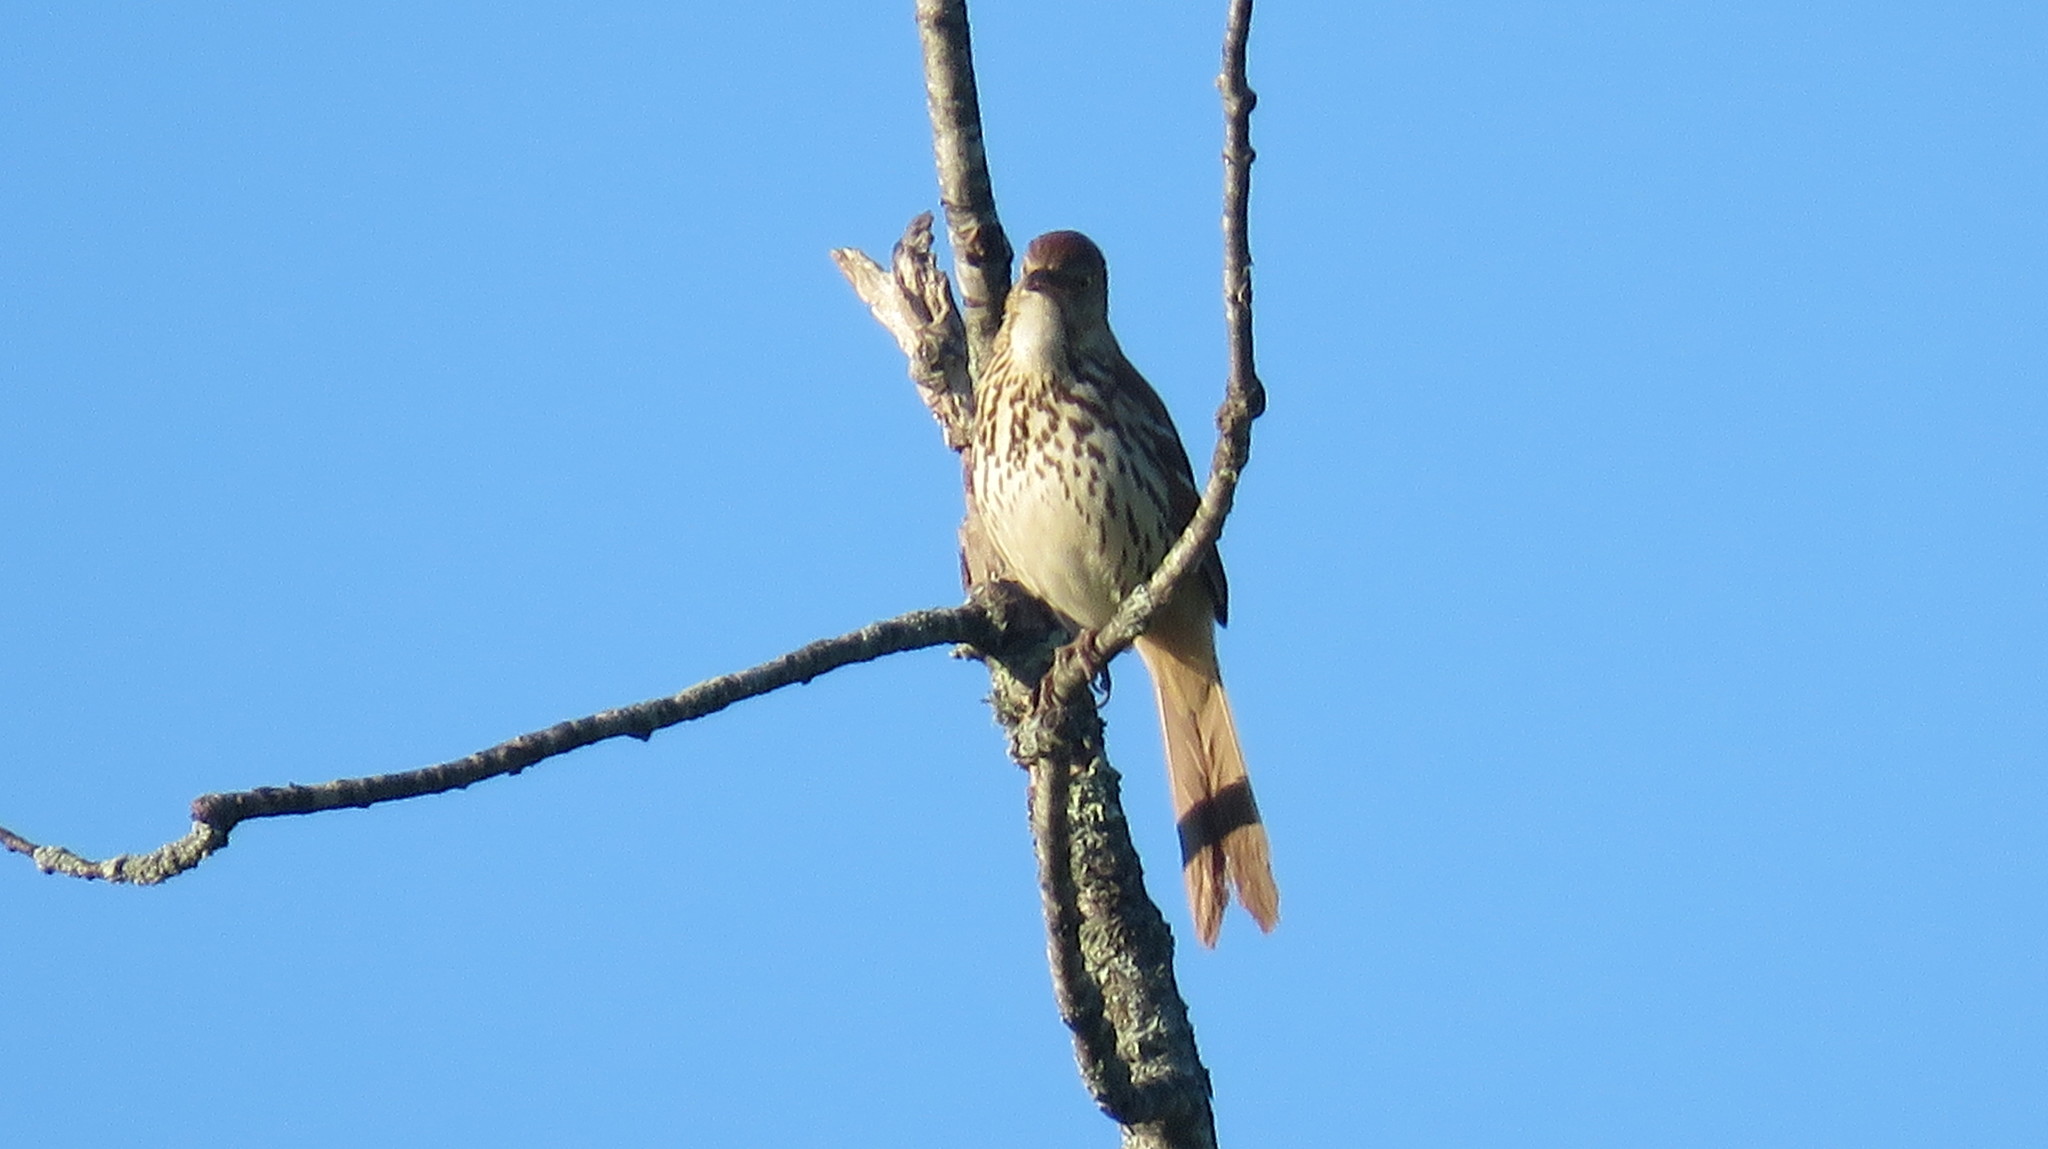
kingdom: Animalia
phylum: Chordata
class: Aves
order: Passeriformes
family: Mimidae
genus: Toxostoma
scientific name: Toxostoma rufum
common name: Brown thrasher
